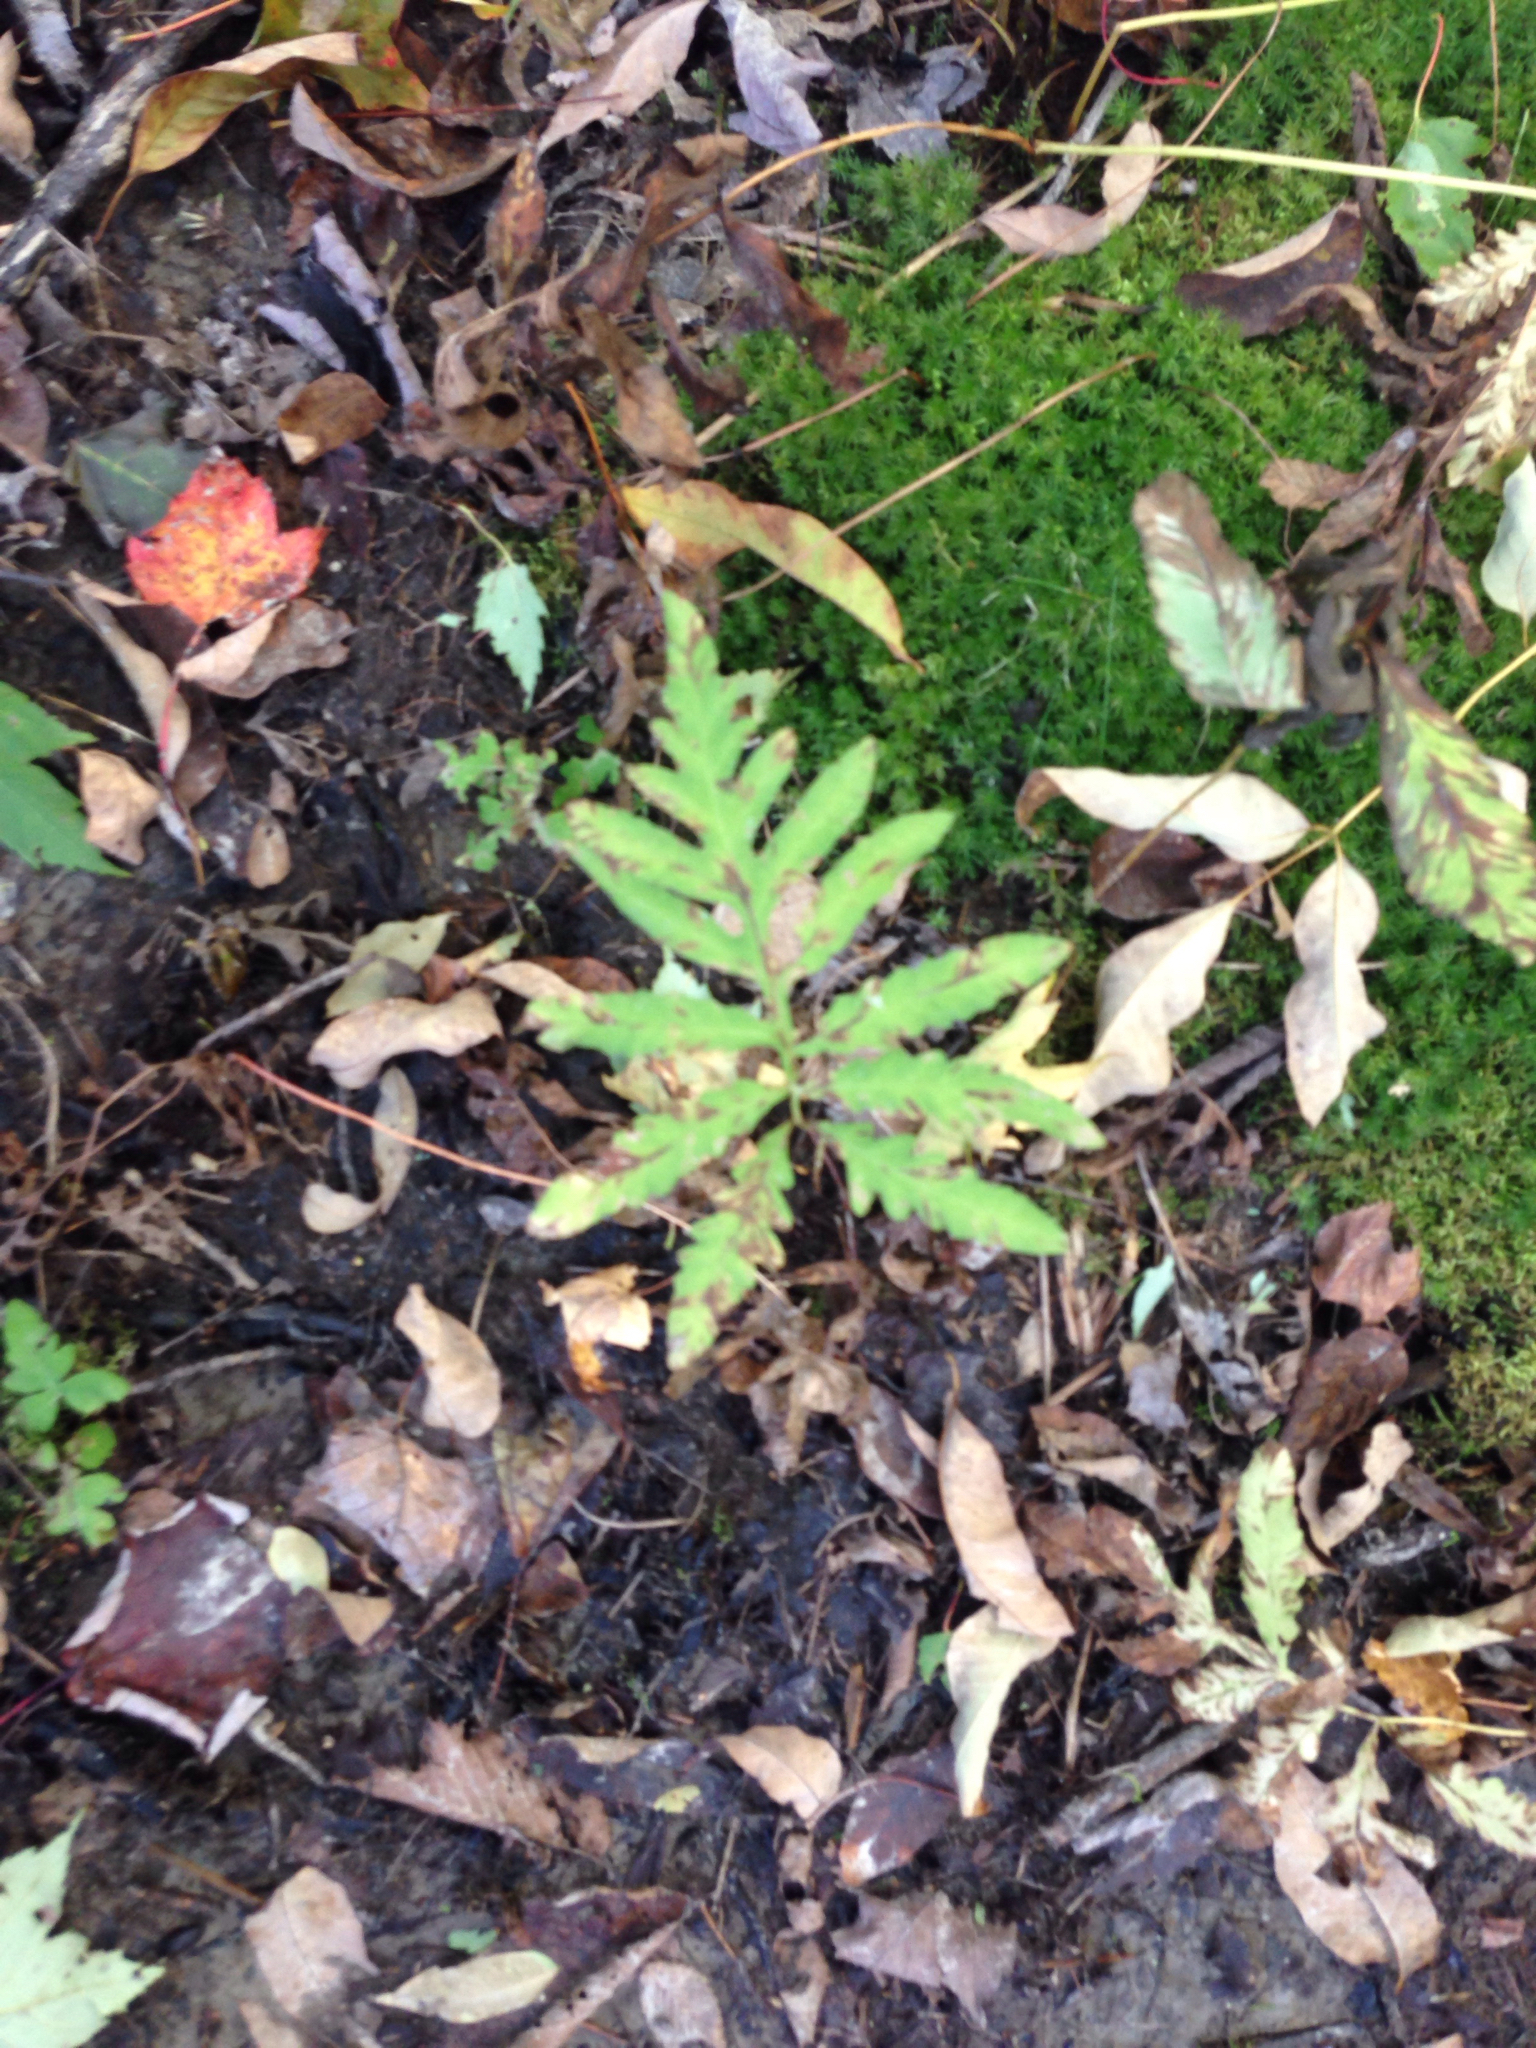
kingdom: Plantae
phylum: Tracheophyta
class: Polypodiopsida
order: Polypodiales
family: Onocleaceae
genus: Onoclea
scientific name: Onoclea sensibilis
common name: Sensitive fern
